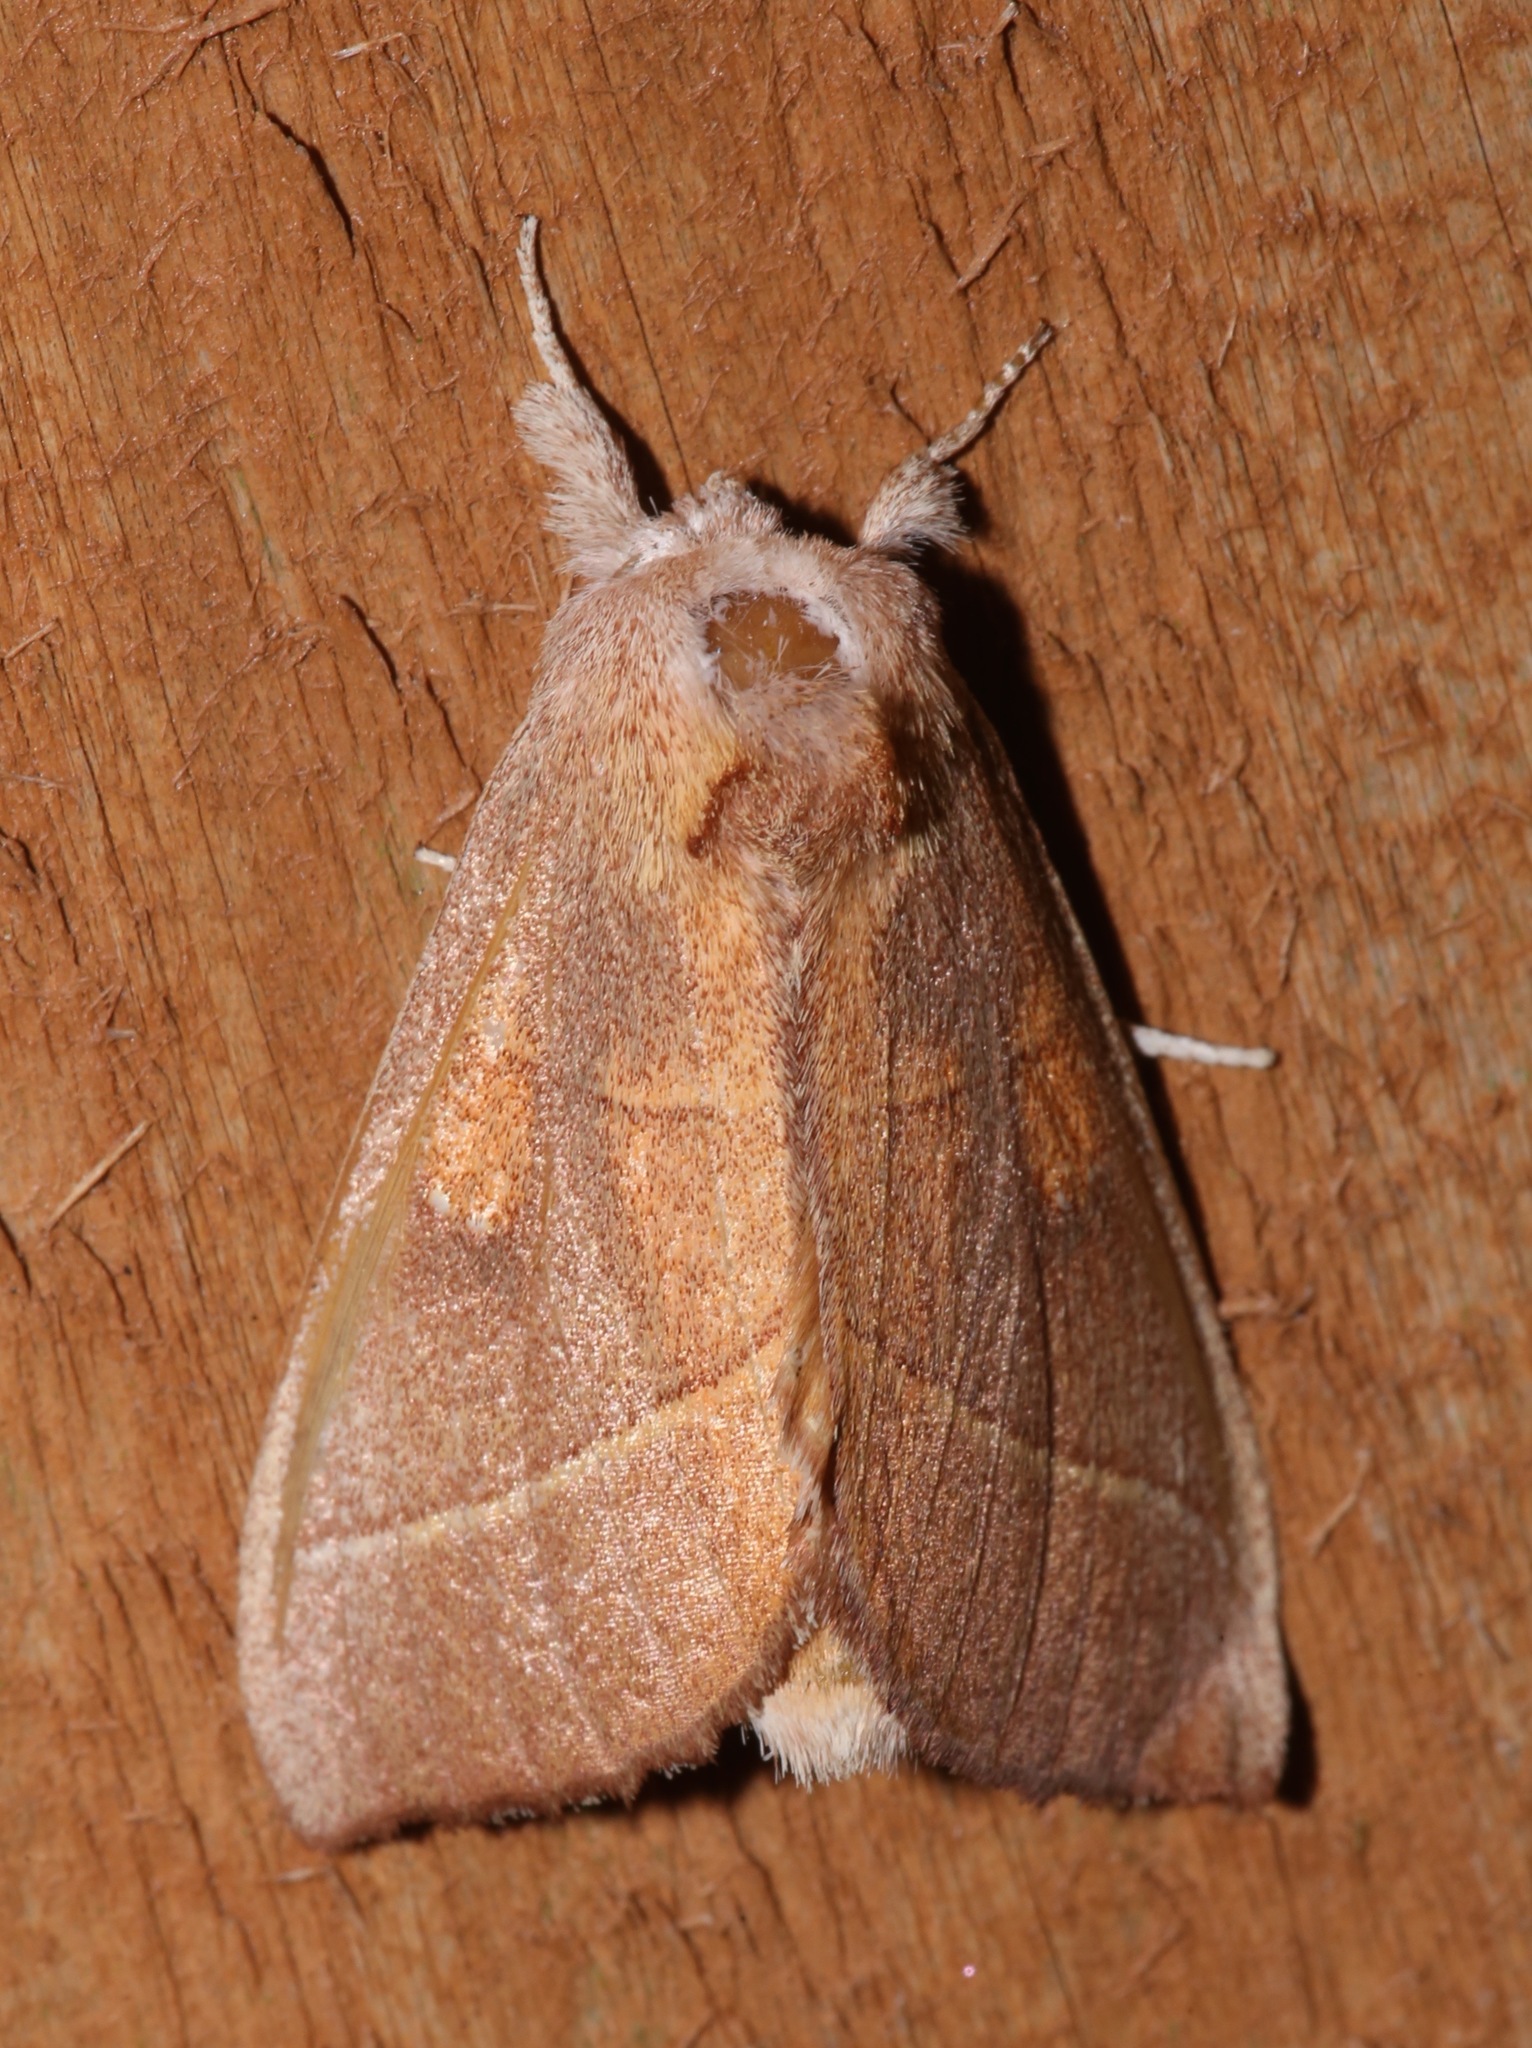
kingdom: Animalia
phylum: Arthropoda
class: Insecta
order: Lepidoptera
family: Notodontidae
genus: Nadata
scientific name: Nadata gibbosa
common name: White-dotted prominent
